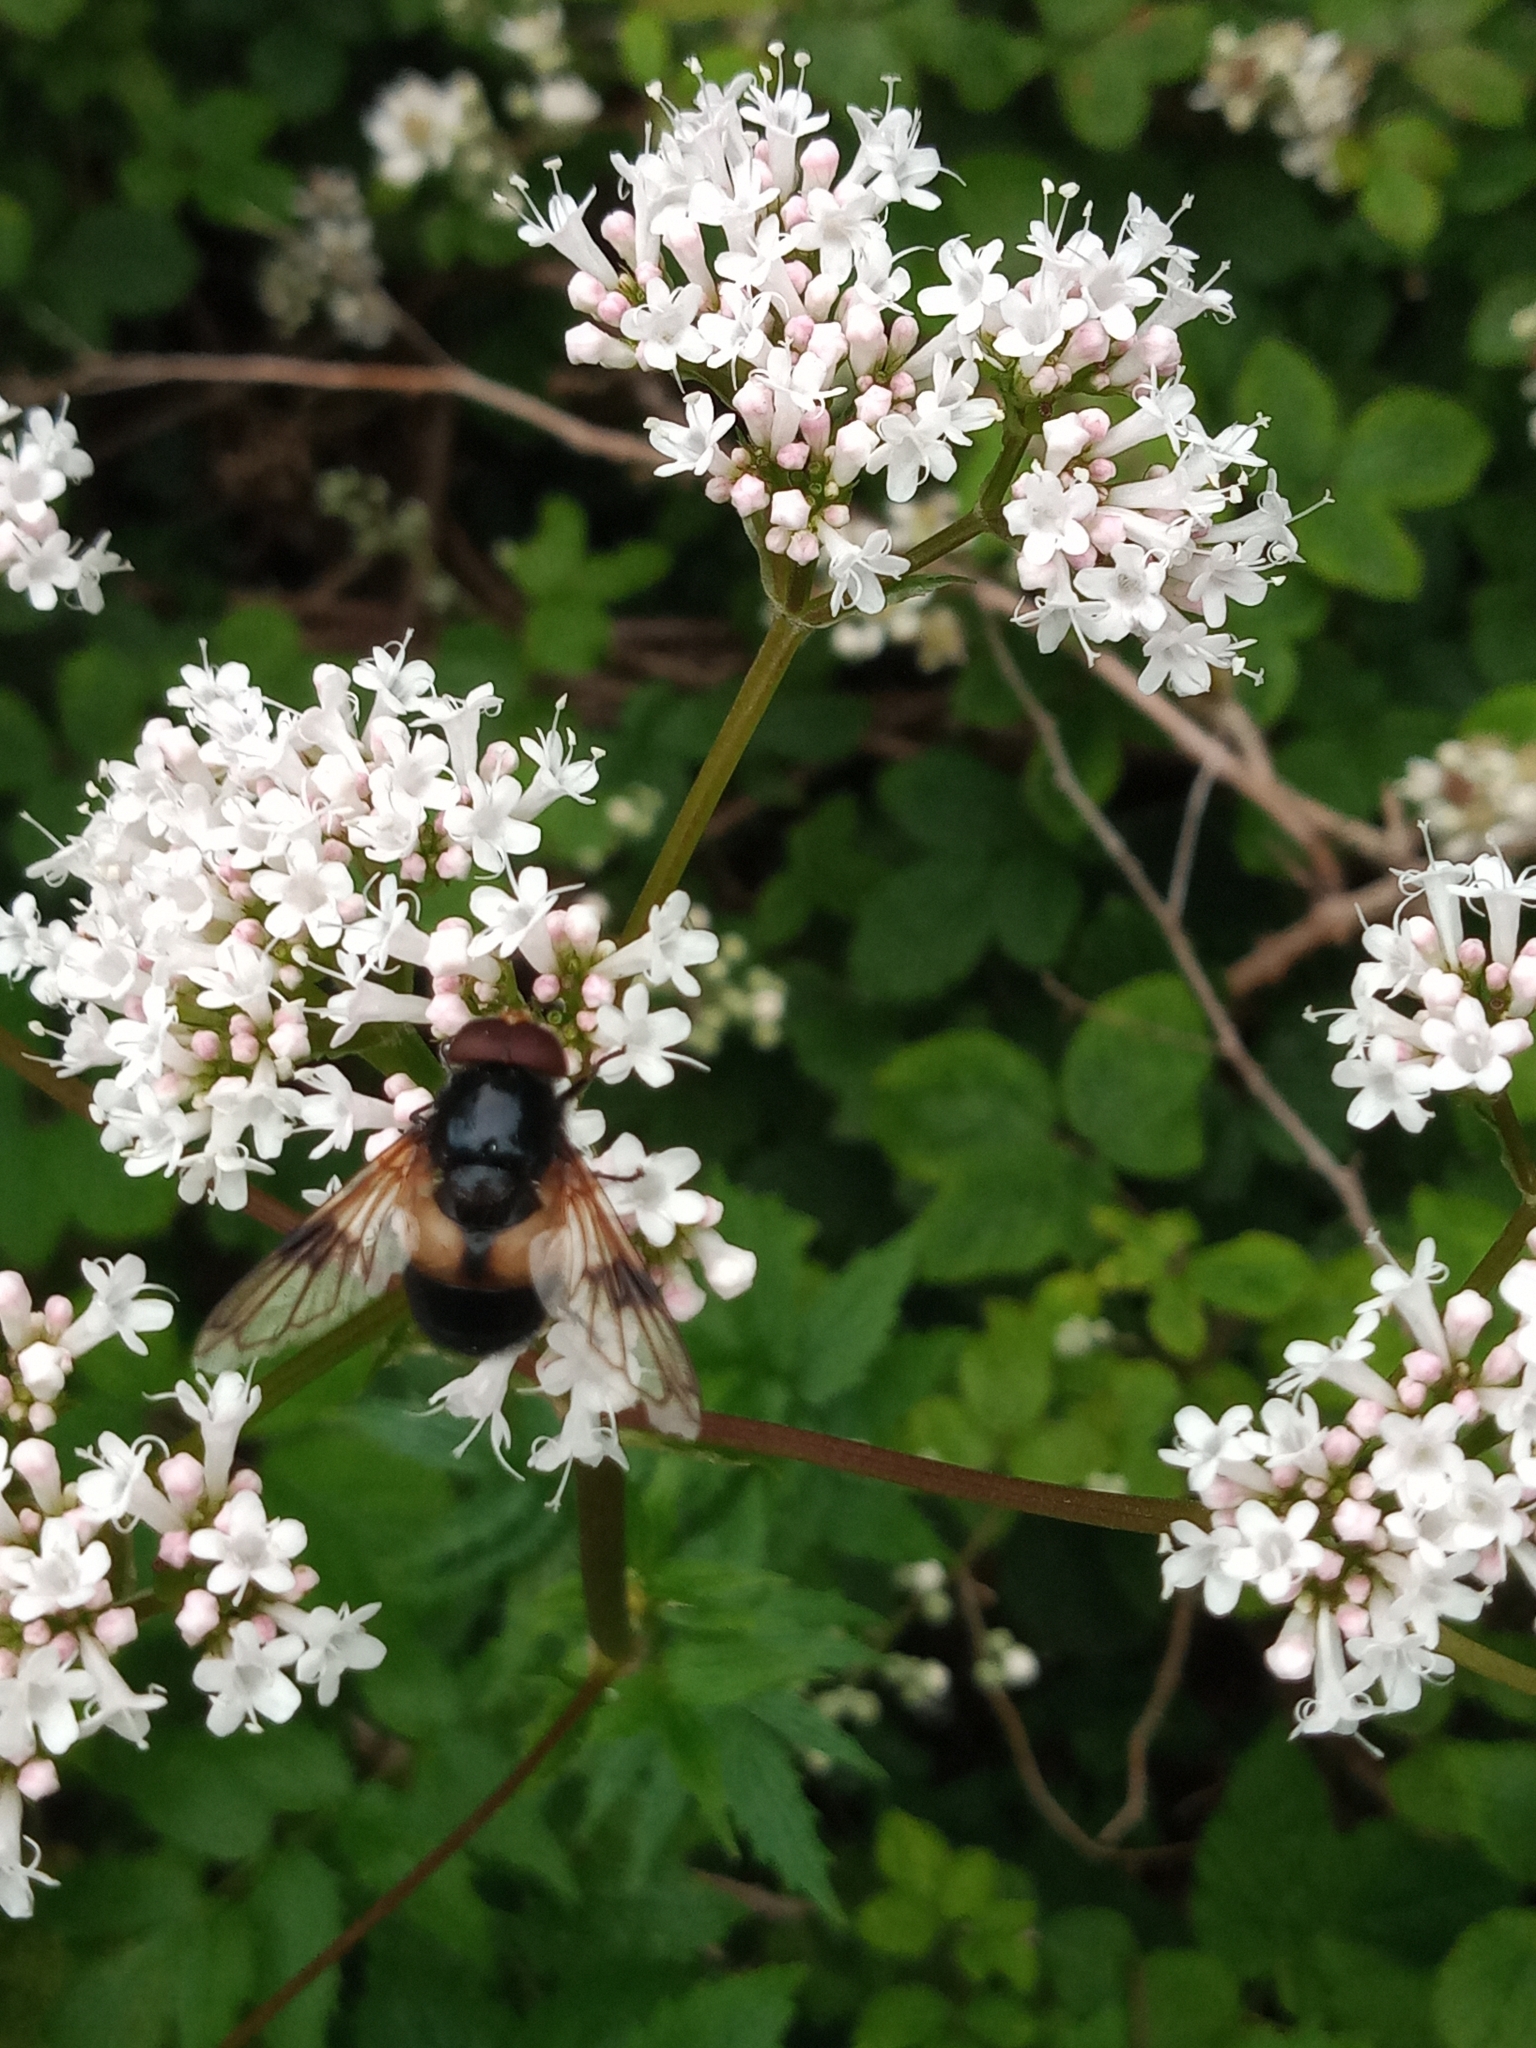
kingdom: Animalia
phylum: Arthropoda
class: Insecta
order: Diptera
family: Syrphidae
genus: Volucella
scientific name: Volucella pellucens
